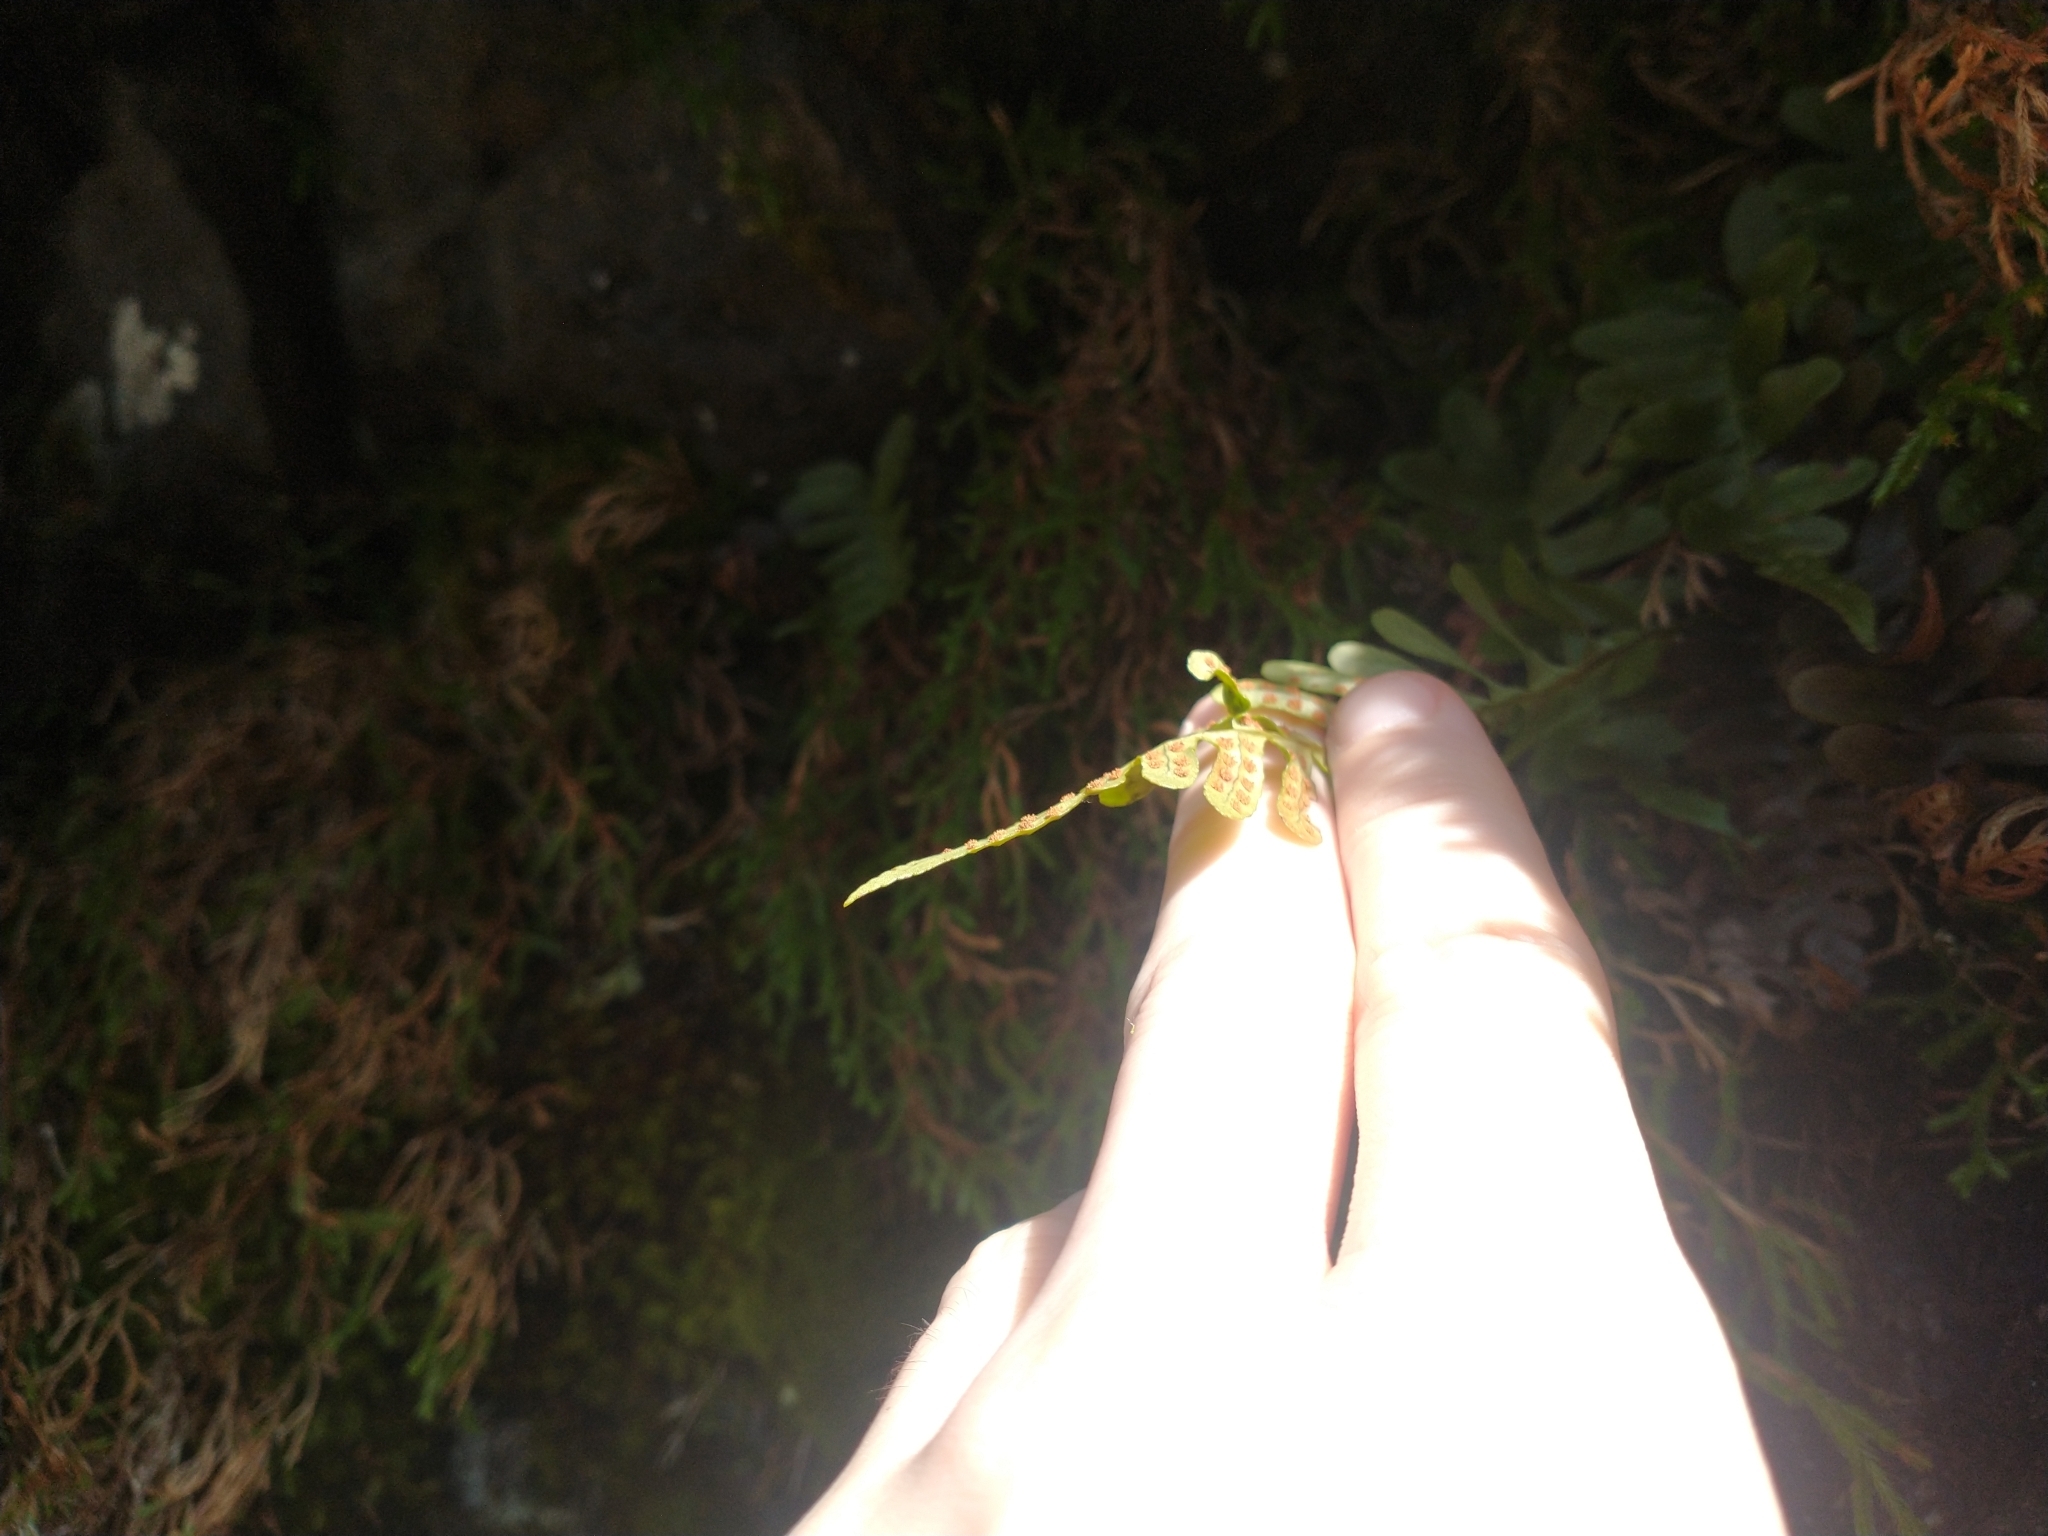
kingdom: Plantae
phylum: Tracheophyta
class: Polypodiopsida
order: Polypodiales
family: Polypodiaceae
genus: Polypodium
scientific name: Polypodium amorphum
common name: Pacific polypody
